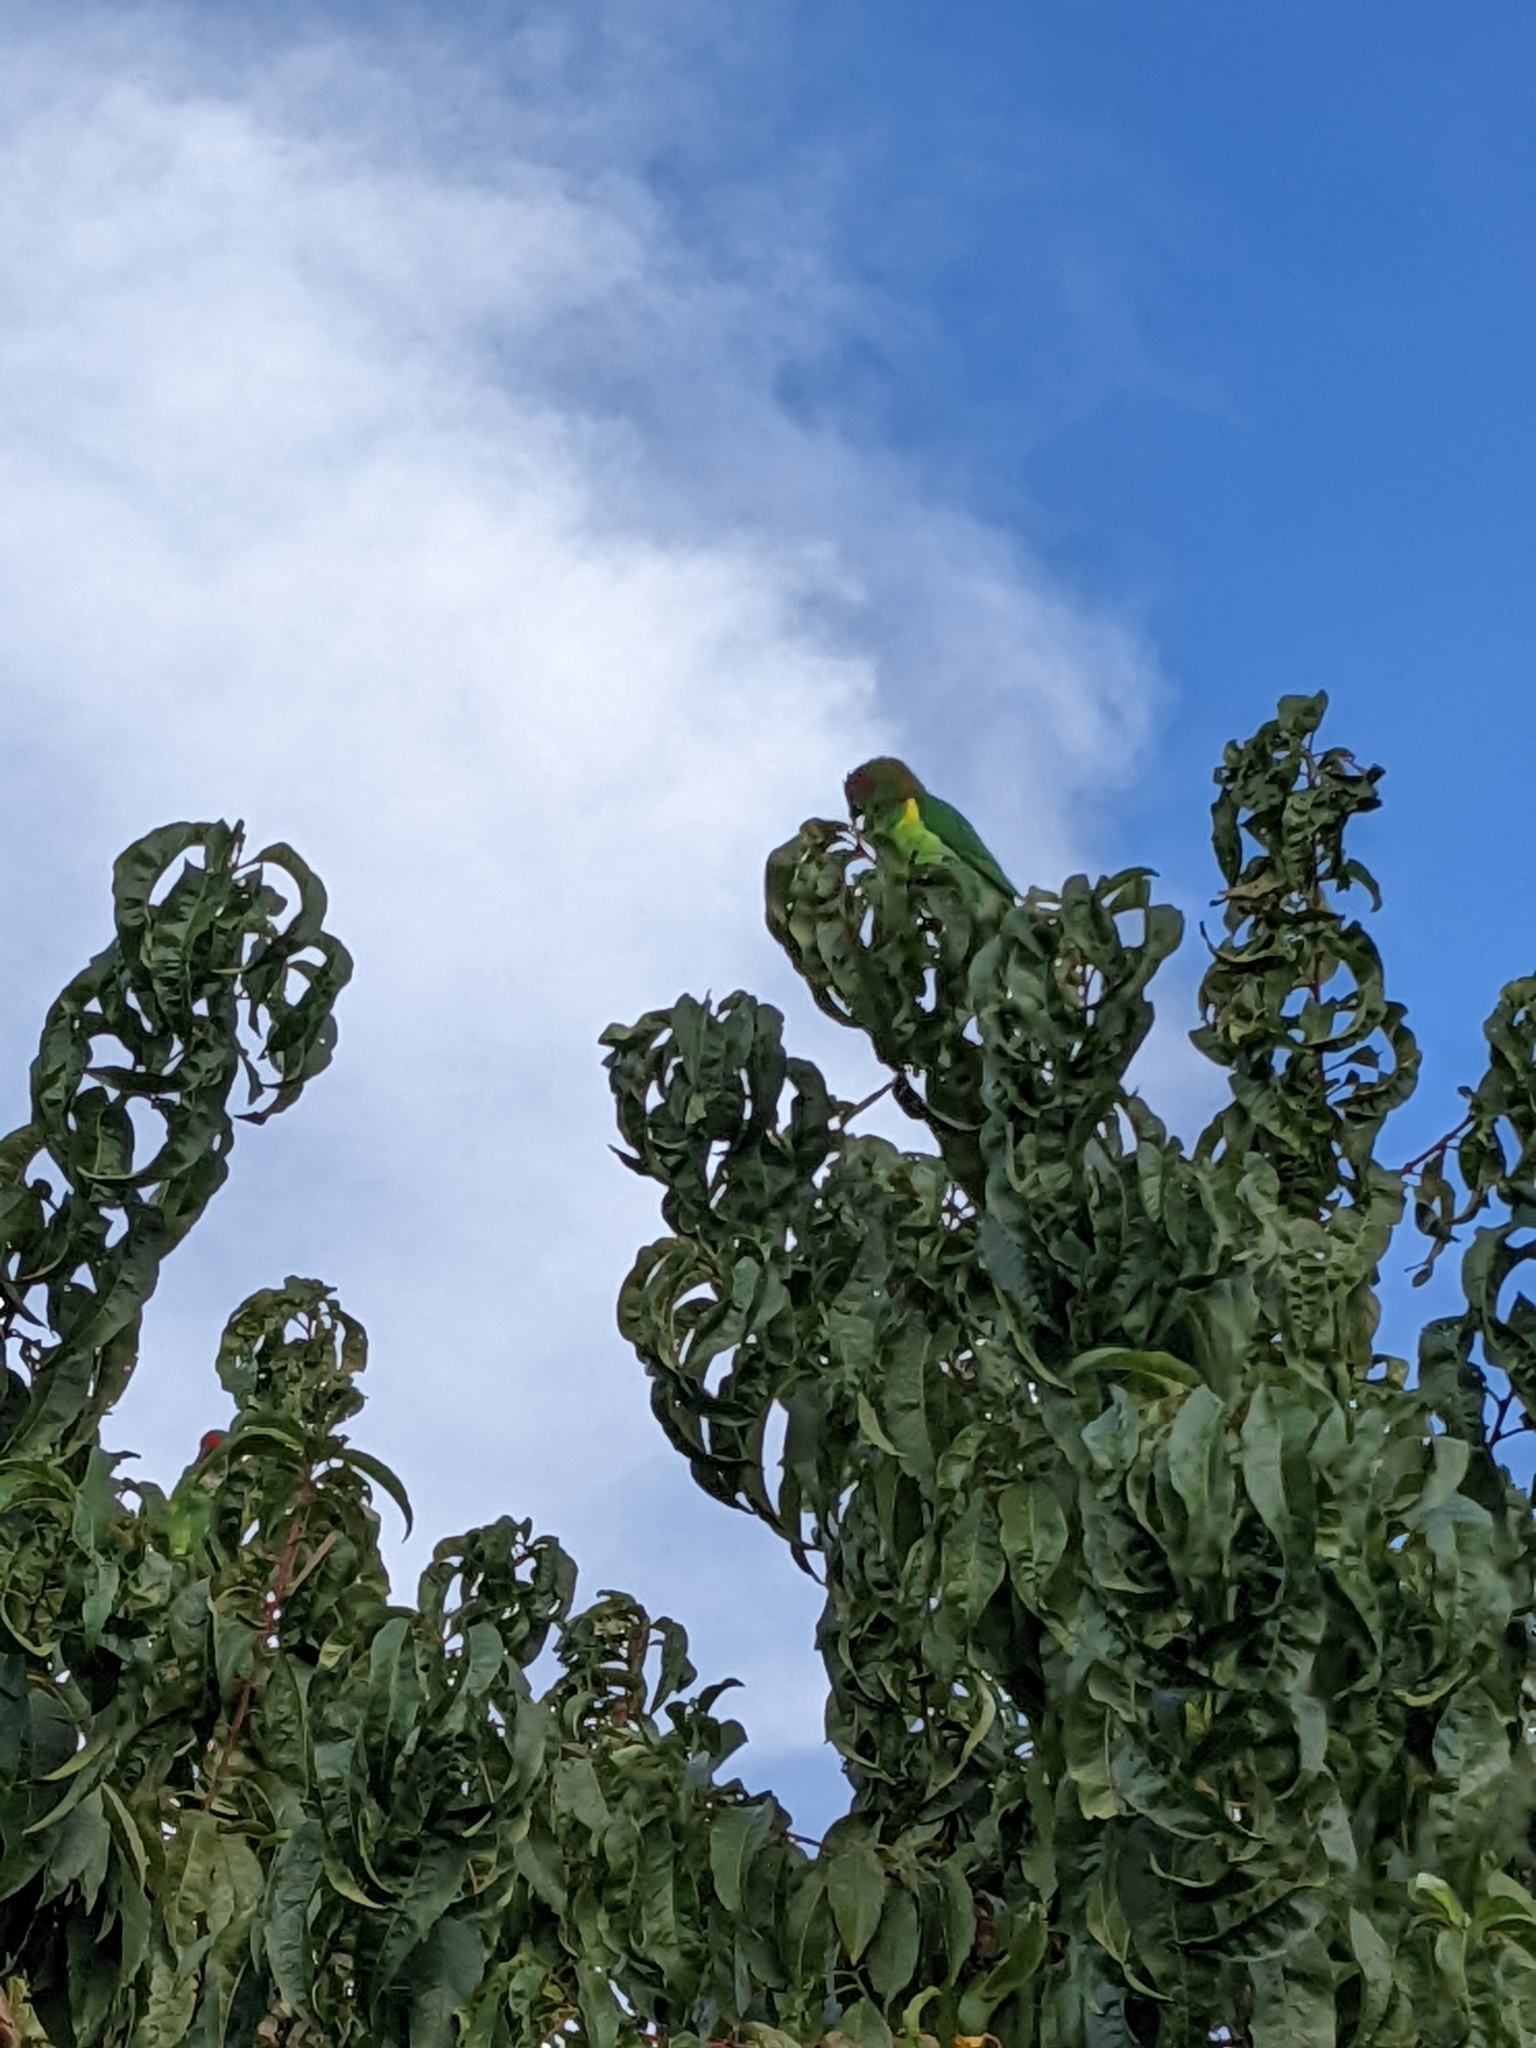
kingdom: Animalia
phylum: Chordata
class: Aves
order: Psittaciformes
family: Psittacidae
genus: Glossopsitta
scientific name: Glossopsitta concinna
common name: Musk lorikeet
